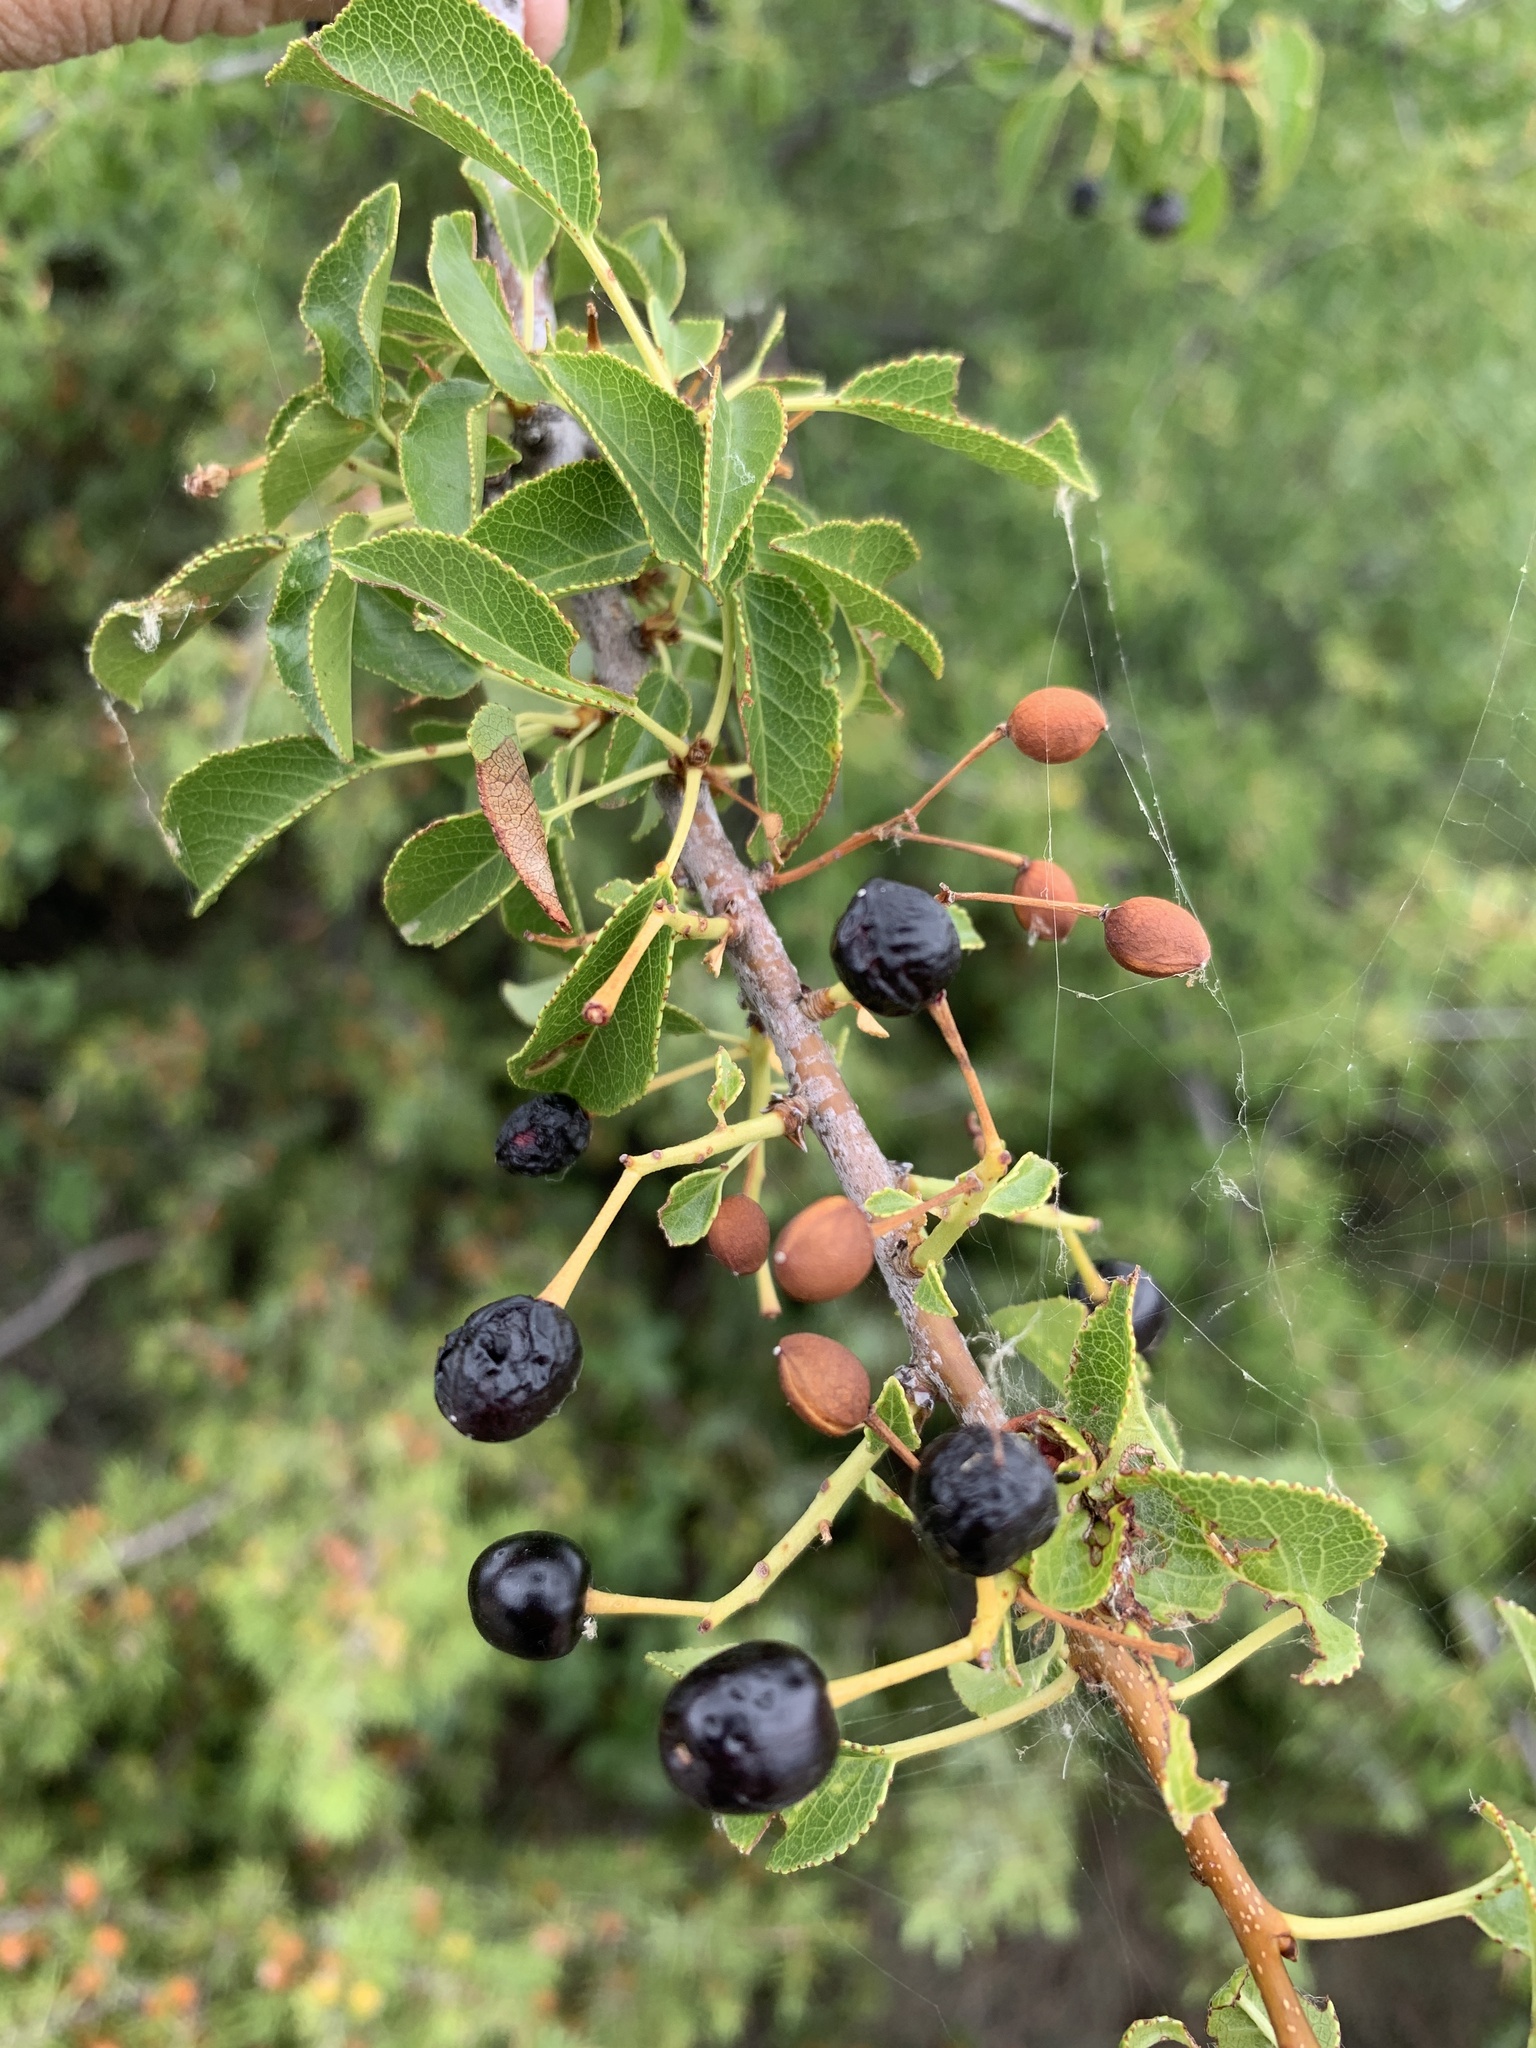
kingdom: Plantae
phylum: Tracheophyta
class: Magnoliopsida
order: Rosales
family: Rosaceae
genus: Prunus
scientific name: Prunus mahaleb
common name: Mahaleb cherry
